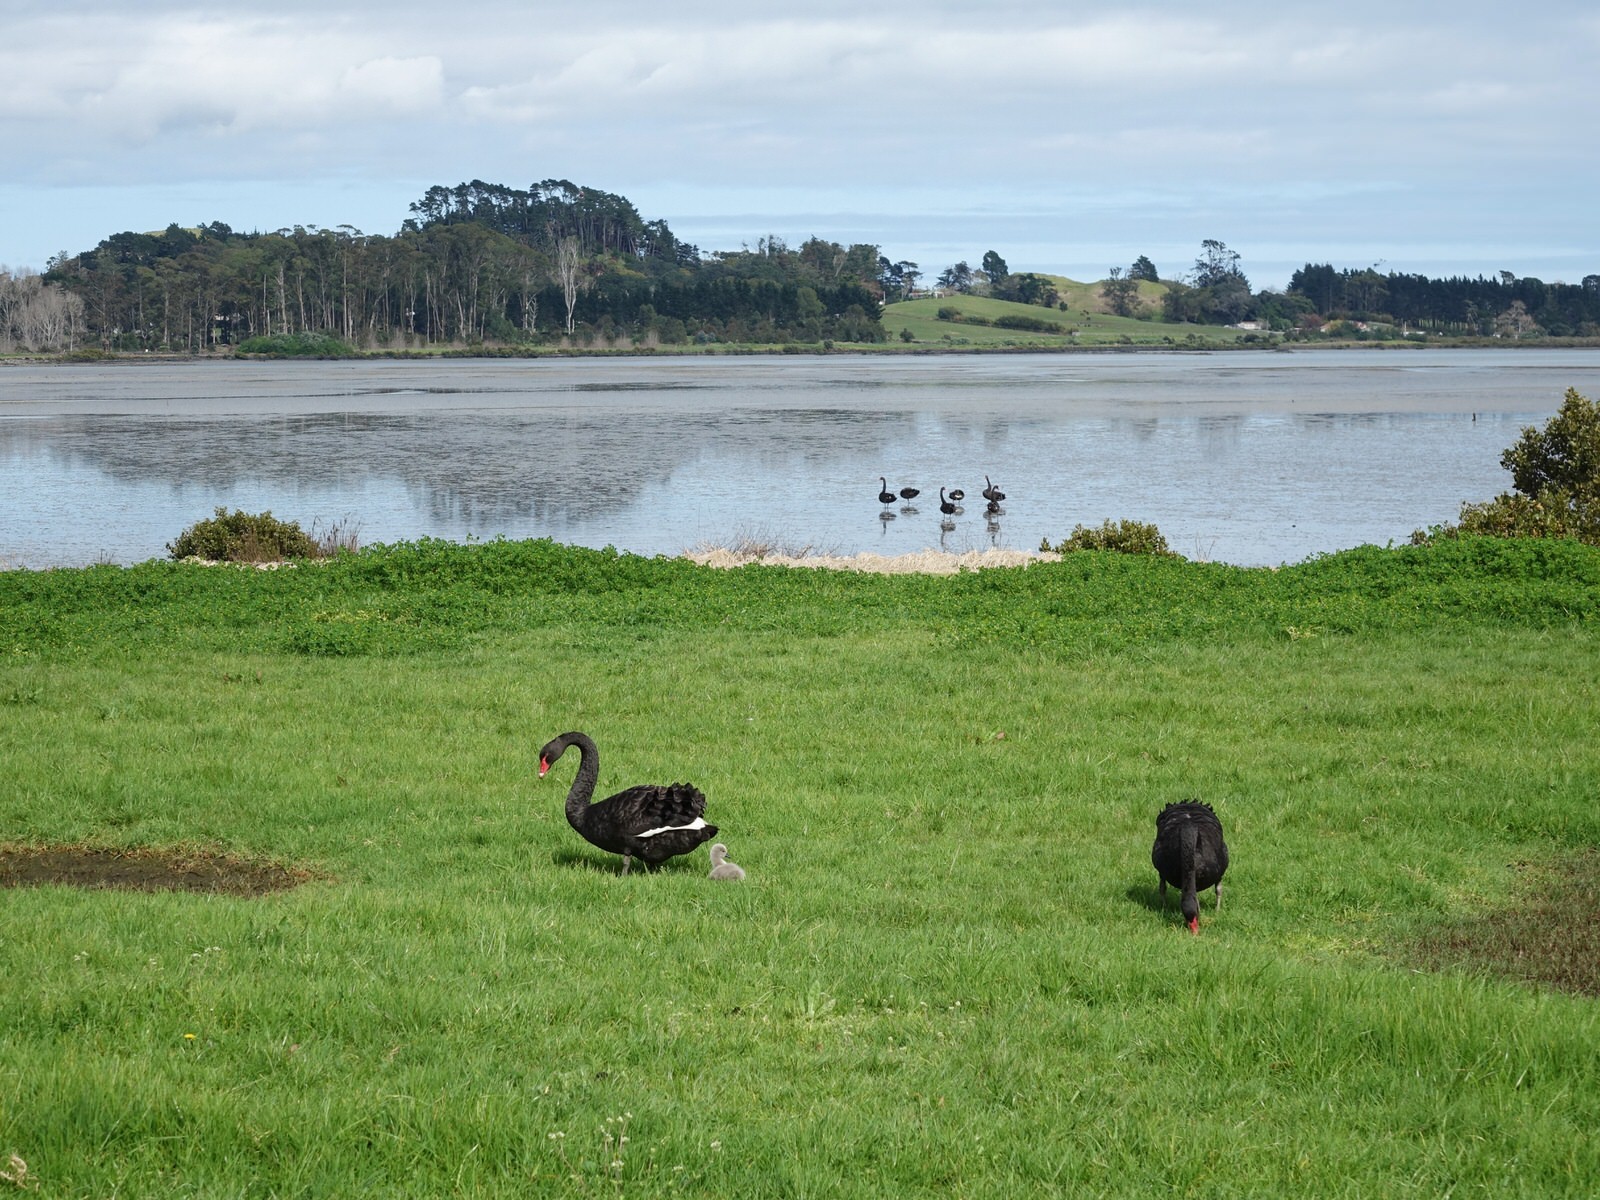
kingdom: Animalia
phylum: Chordata
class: Aves
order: Anseriformes
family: Anatidae
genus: Cygnus
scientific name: Cygnus atratus
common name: Black swan
